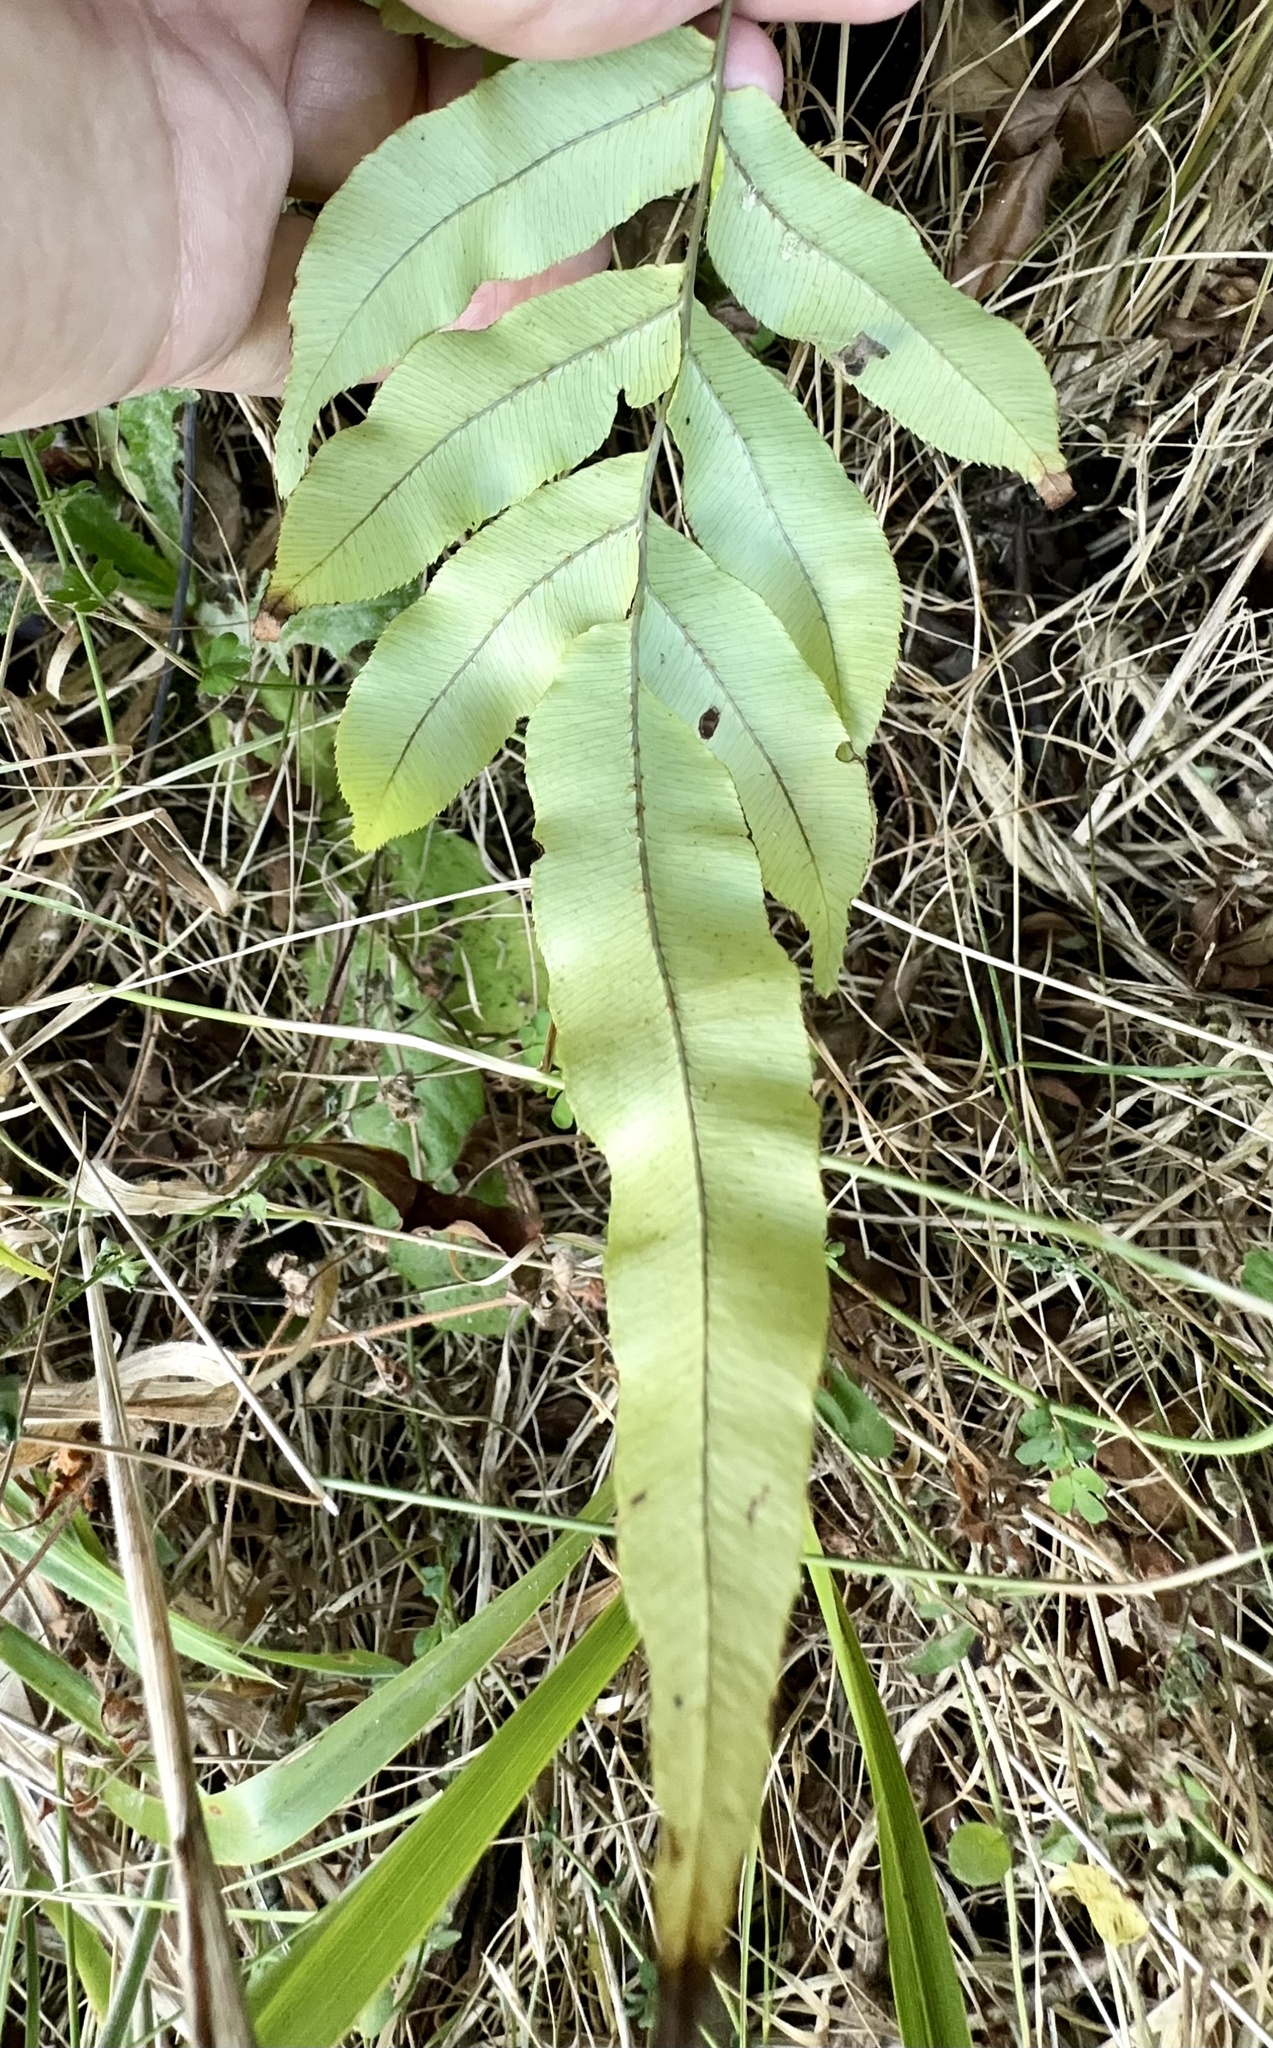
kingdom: Plantae
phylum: Tracheophyta
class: Polypodiopsida
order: Polypodiales
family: Blechnaceae
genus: Parablechnum
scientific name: Parablechnum novae-zelandiae
